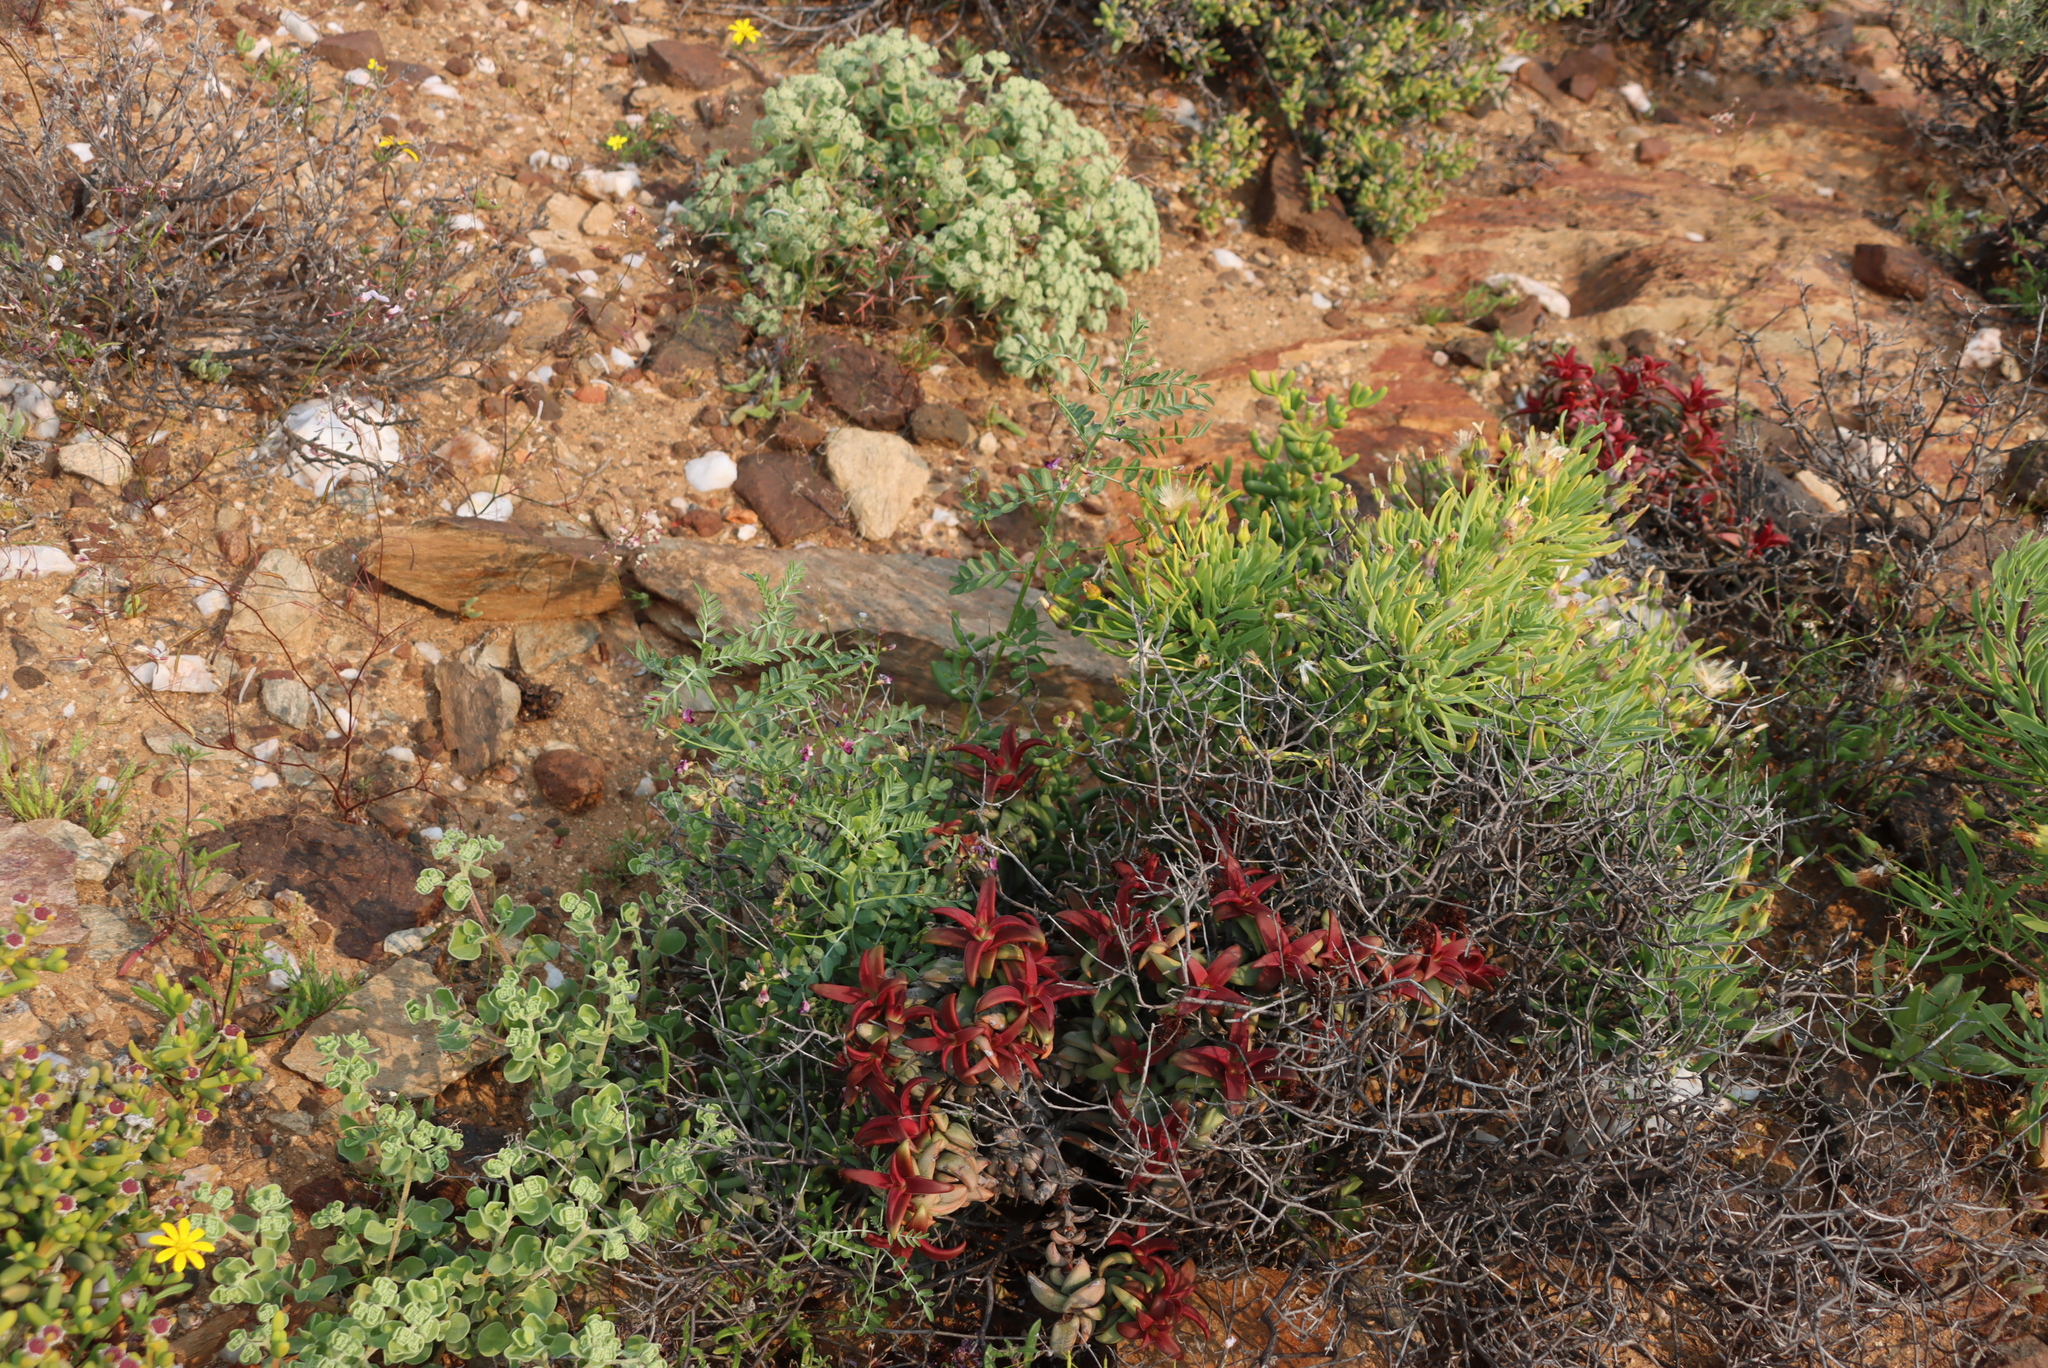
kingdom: Plantae
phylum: Tracheophyta
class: Magnoliopsida
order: Asterales
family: Asteraceae
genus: Othonna
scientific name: Othonna lasiocarpa
